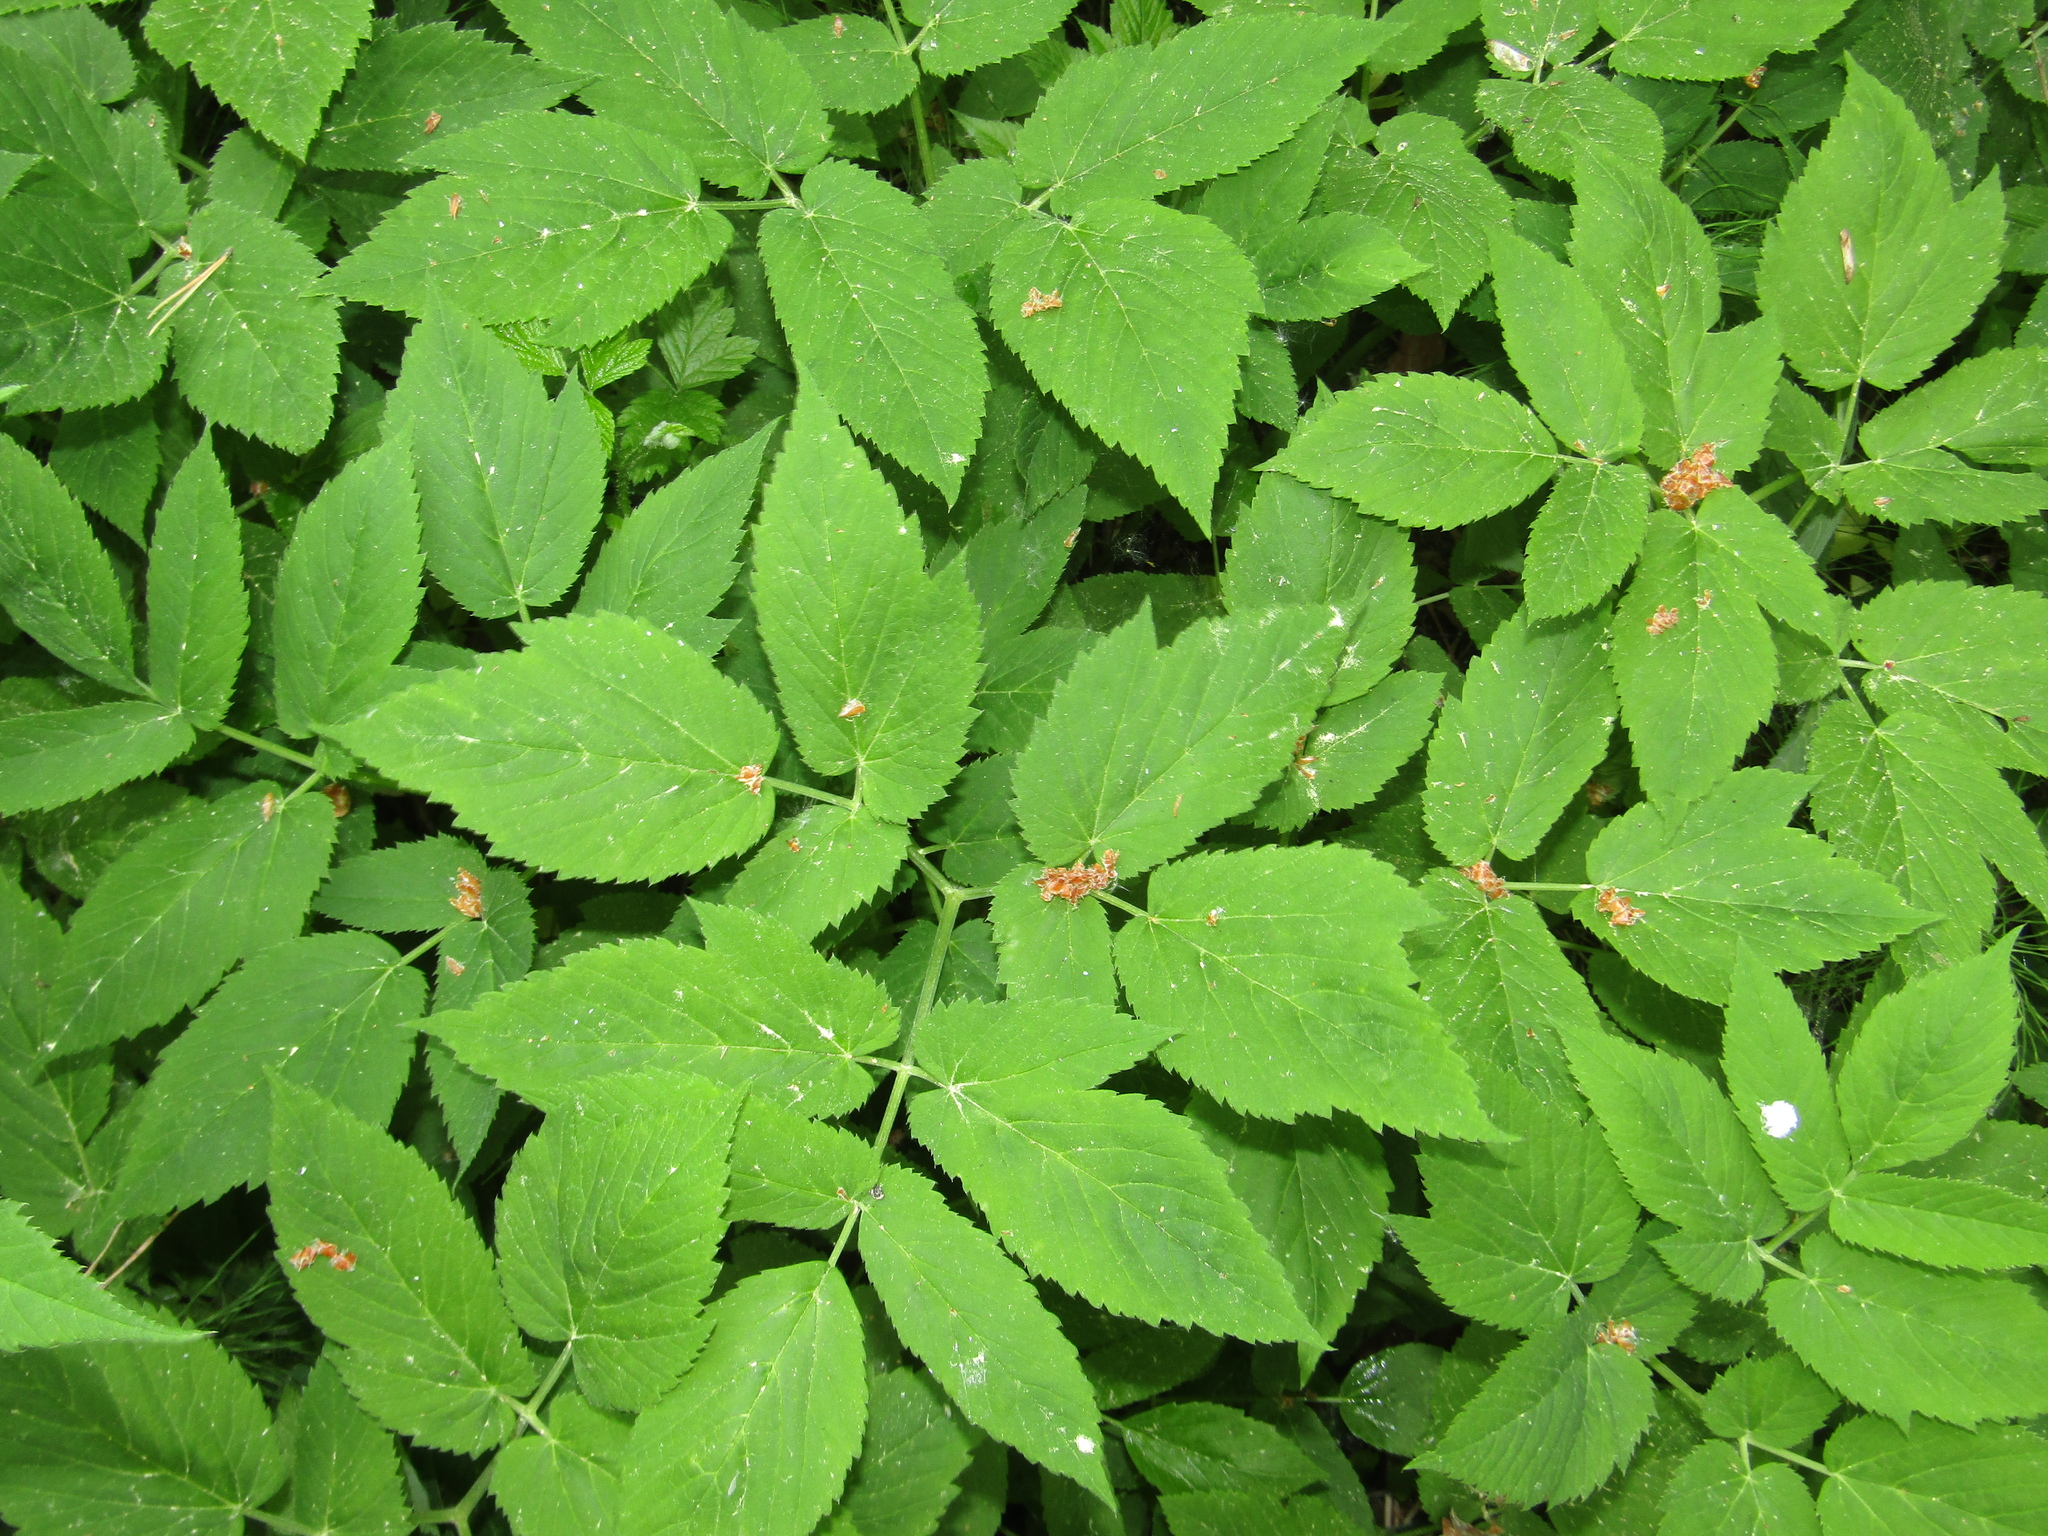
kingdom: Plantae
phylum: Tracheophyta
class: Magnoliopsida
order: Apiales
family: Apiaceae
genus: Aegopodium
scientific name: Aegopodium podagraria
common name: Ground-elder
